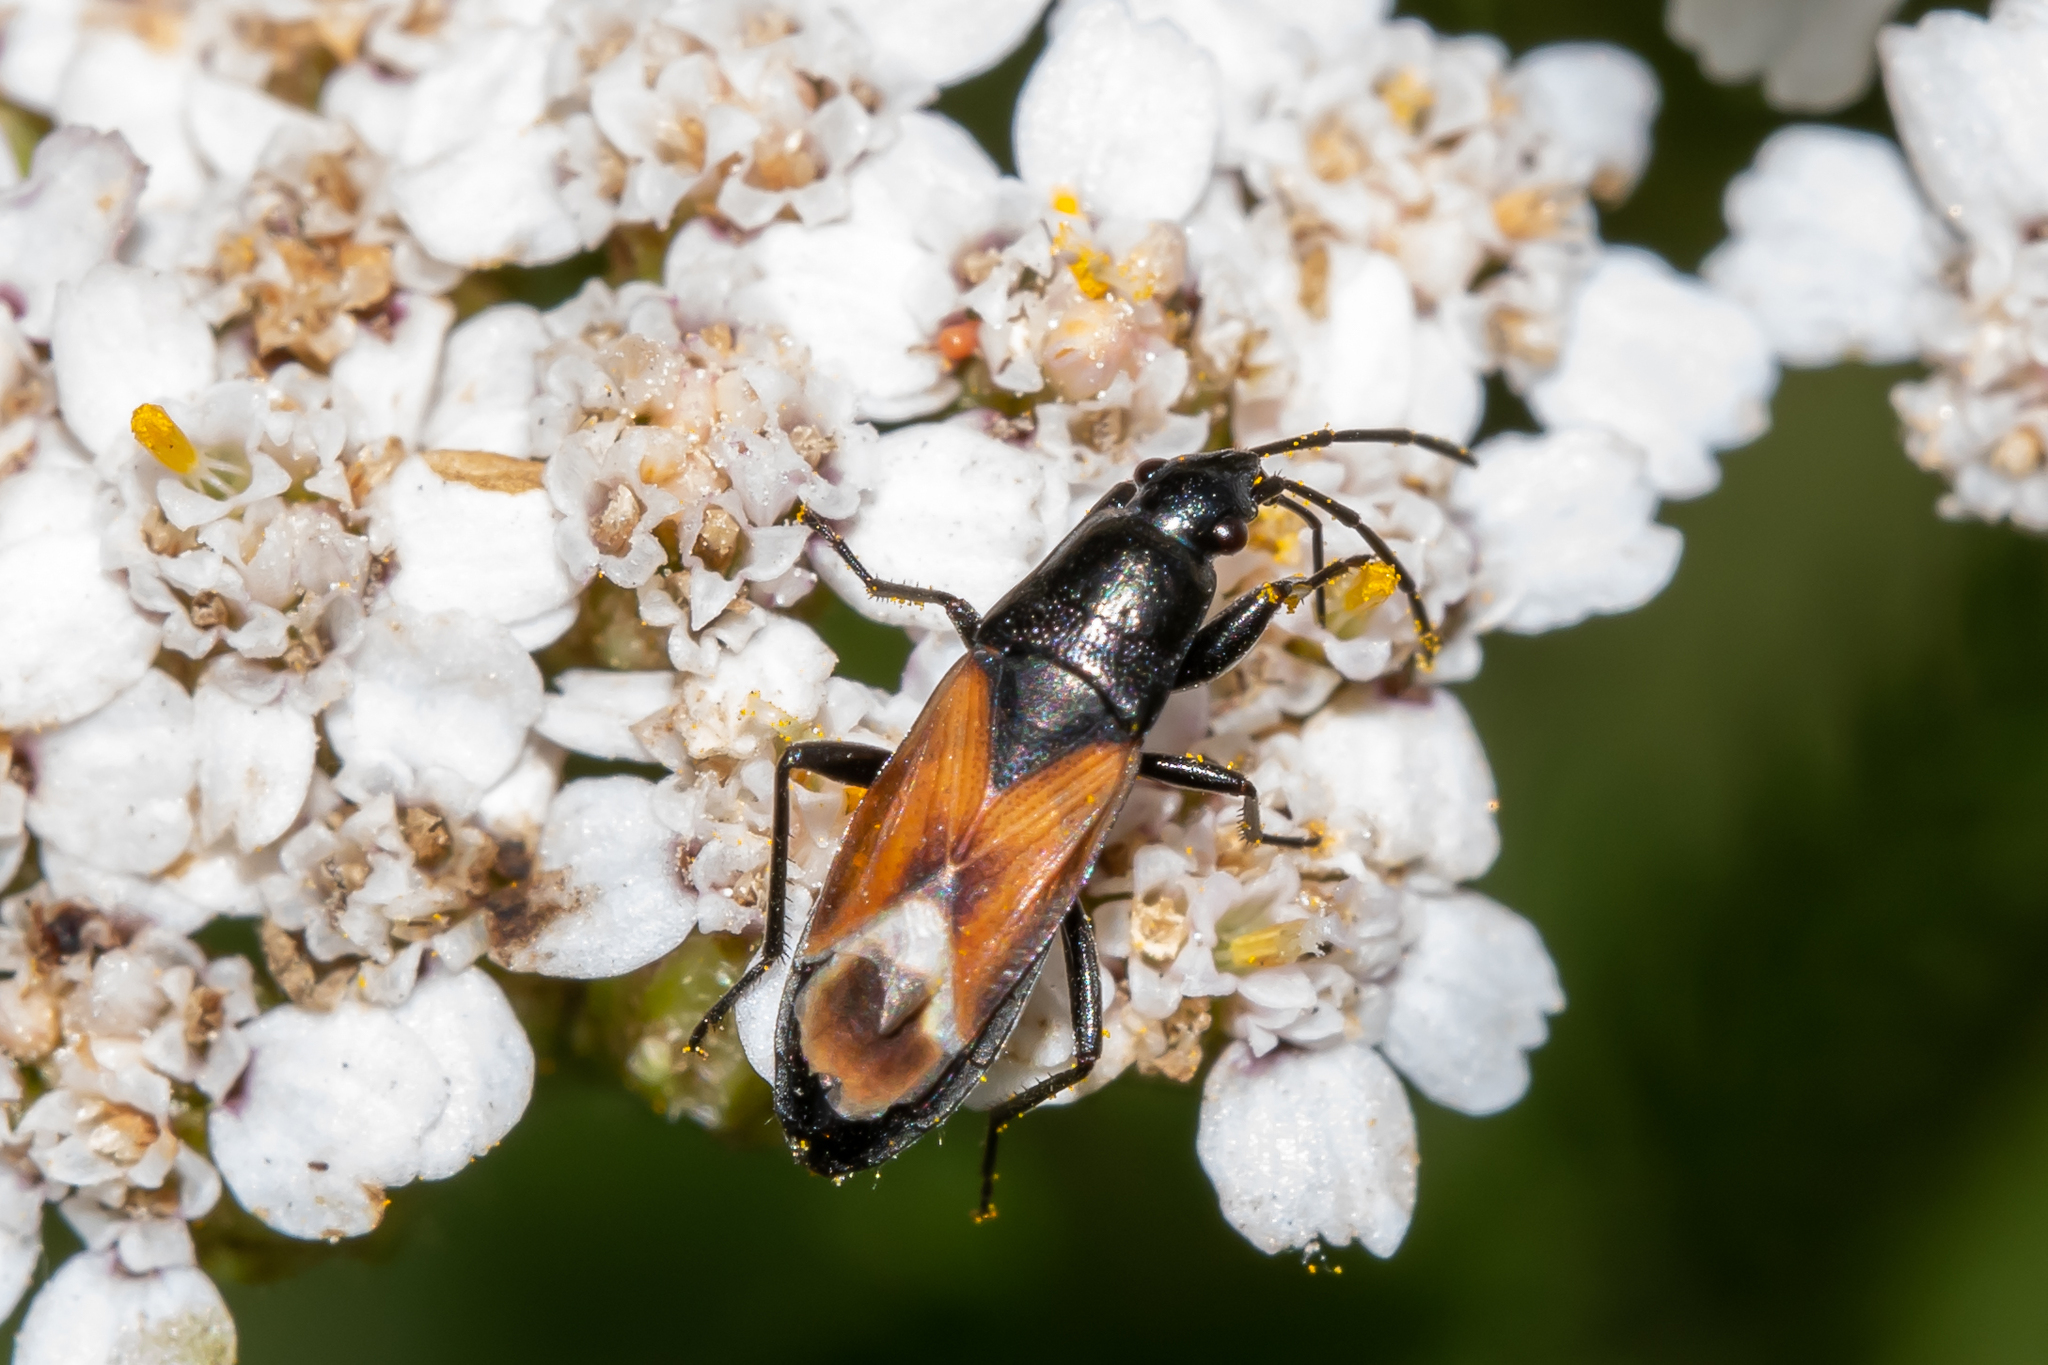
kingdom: Animalia
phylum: Arthropoda
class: Insecta
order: Hemiptera
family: Rhyparochromidae
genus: Pterotmetus
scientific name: Pterotmetus staphyliniformis
